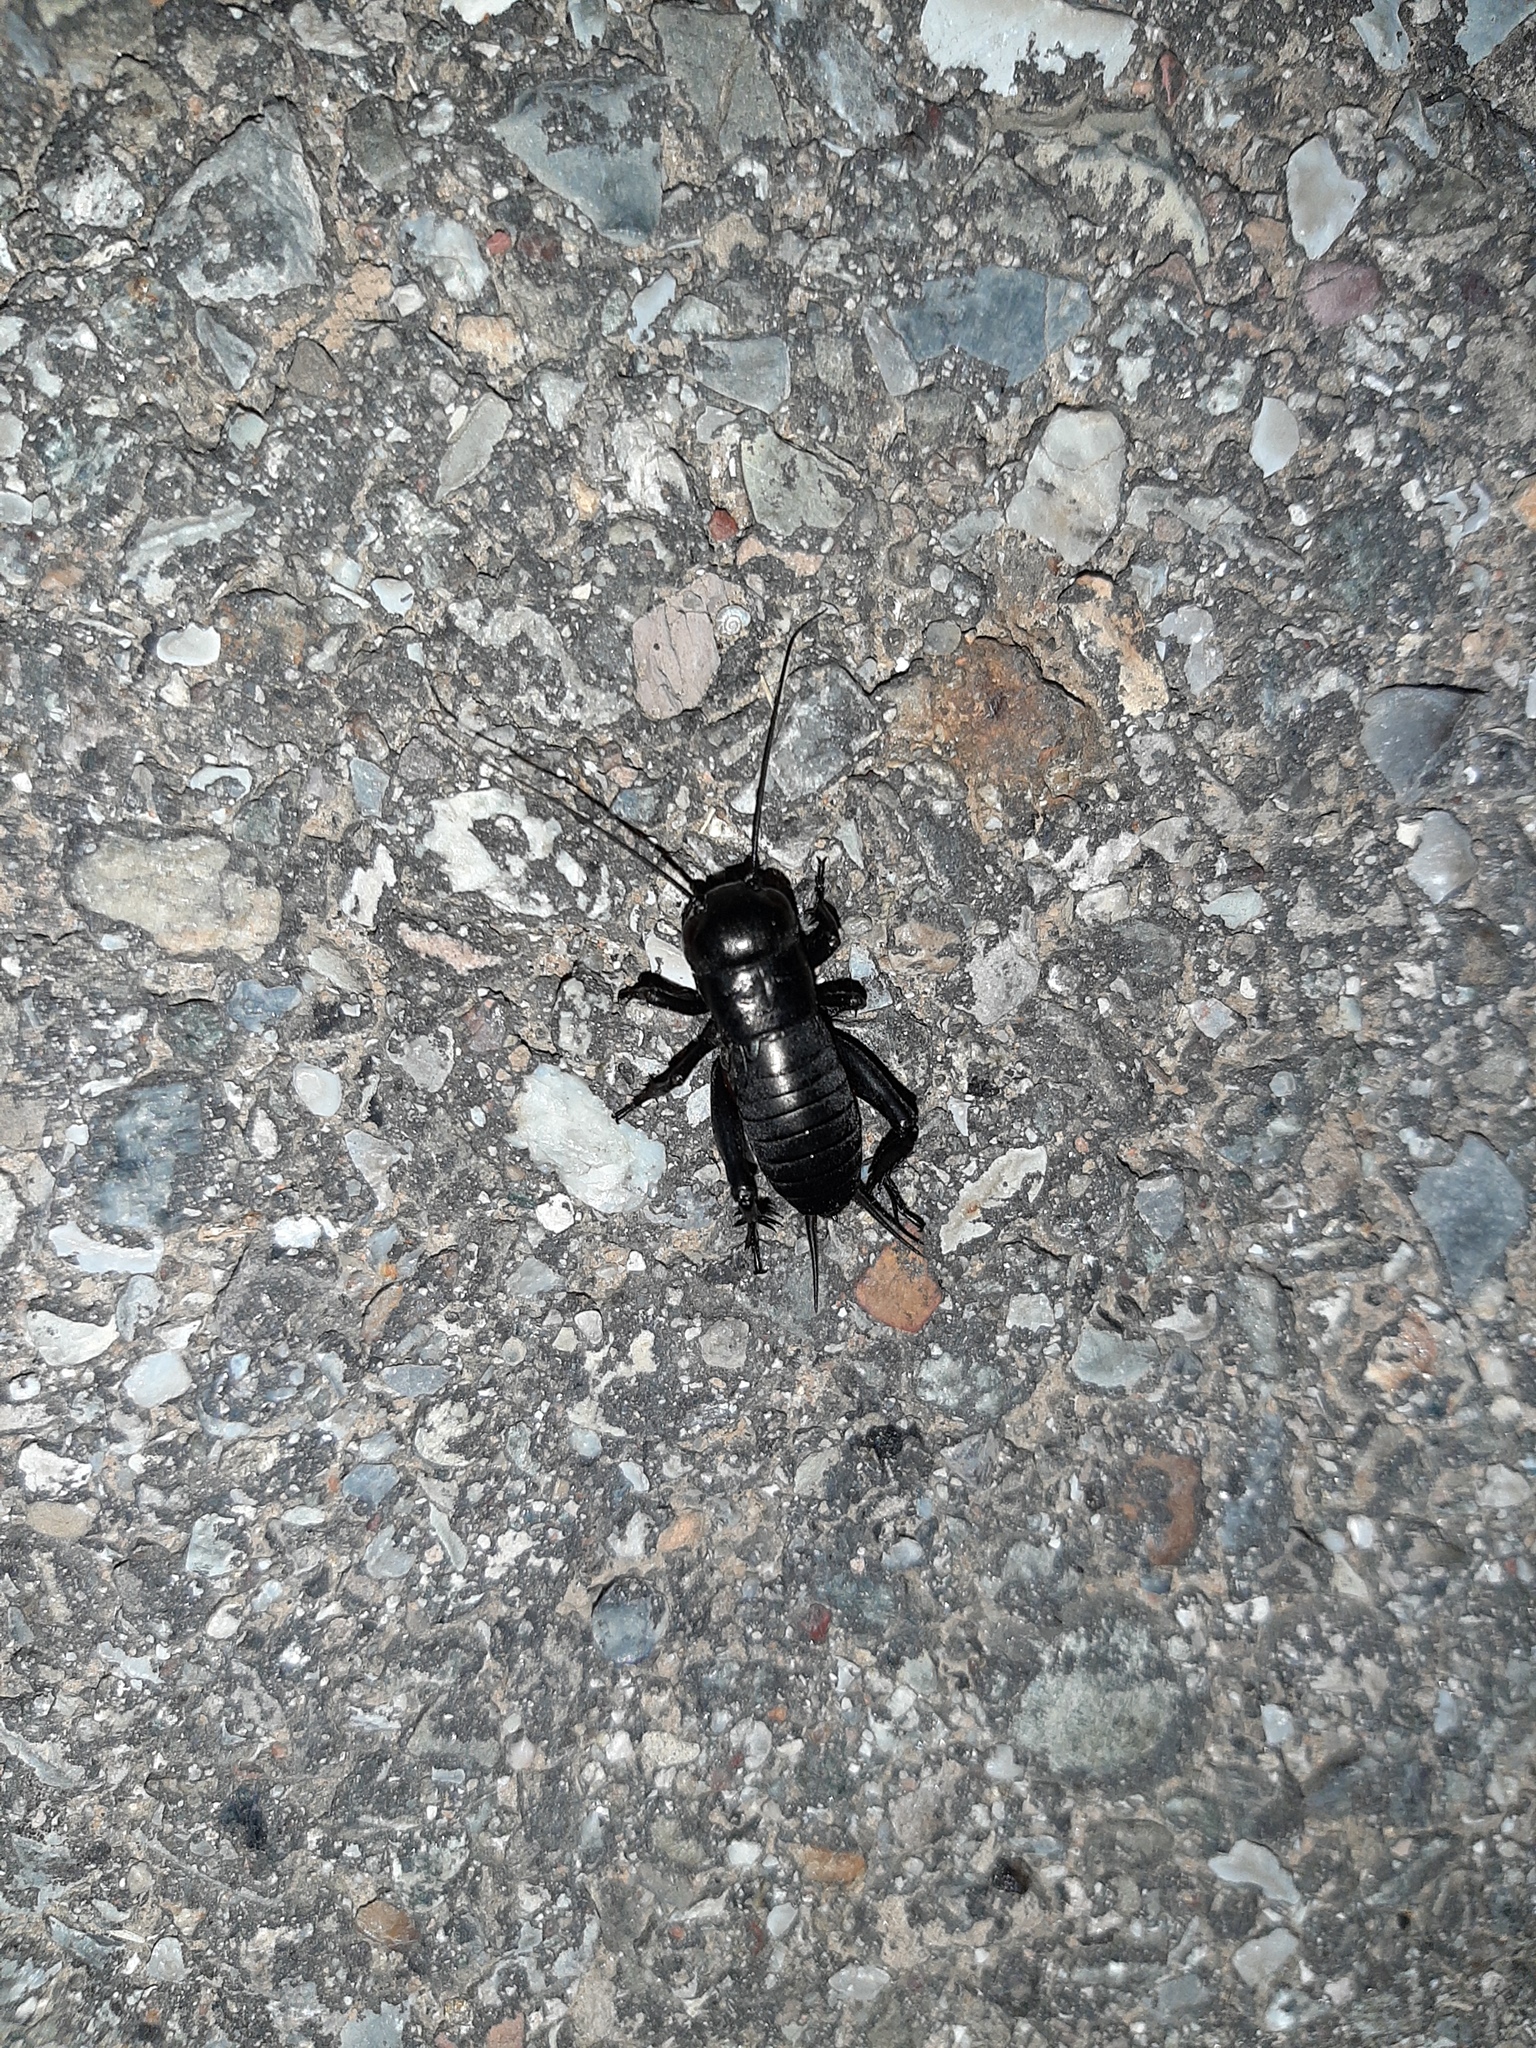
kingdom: Animalia
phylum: Arthropoda
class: Insecta
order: Orthoptera
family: Gryllidae
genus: Gryllus
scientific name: Gryllus campestris
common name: Field cricket
